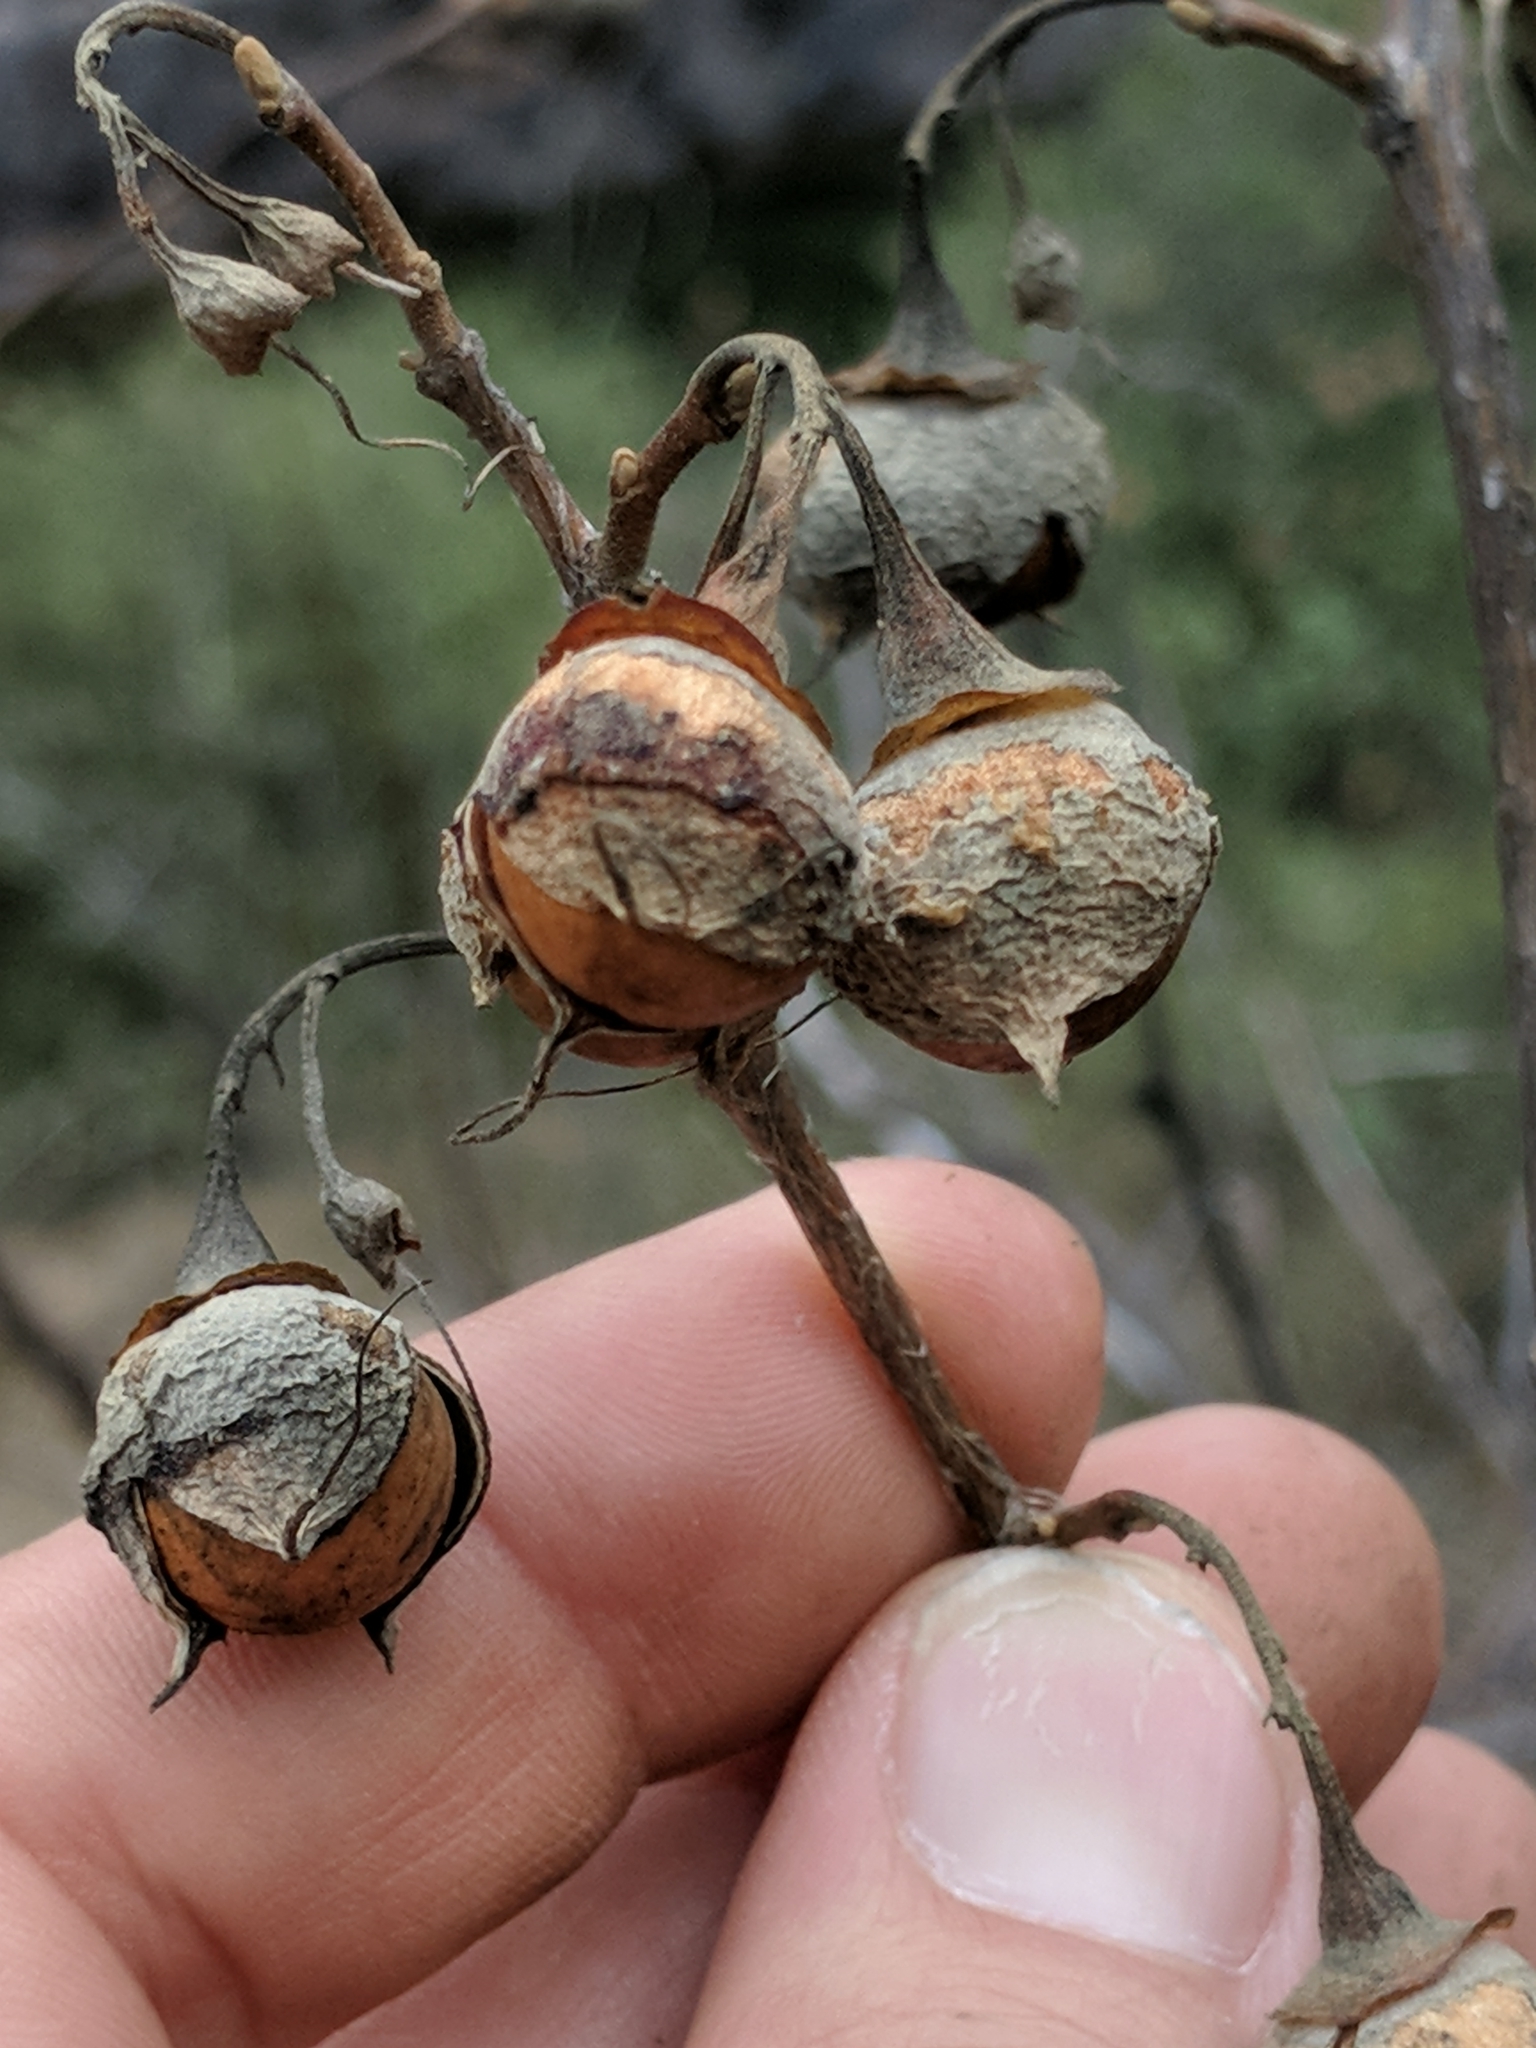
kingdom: Plantae
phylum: Tracheophyta
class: Magnoliopsida
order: Ericales
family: Styracaceae
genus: Styrax
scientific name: Styrax redivivus
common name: California styrax
